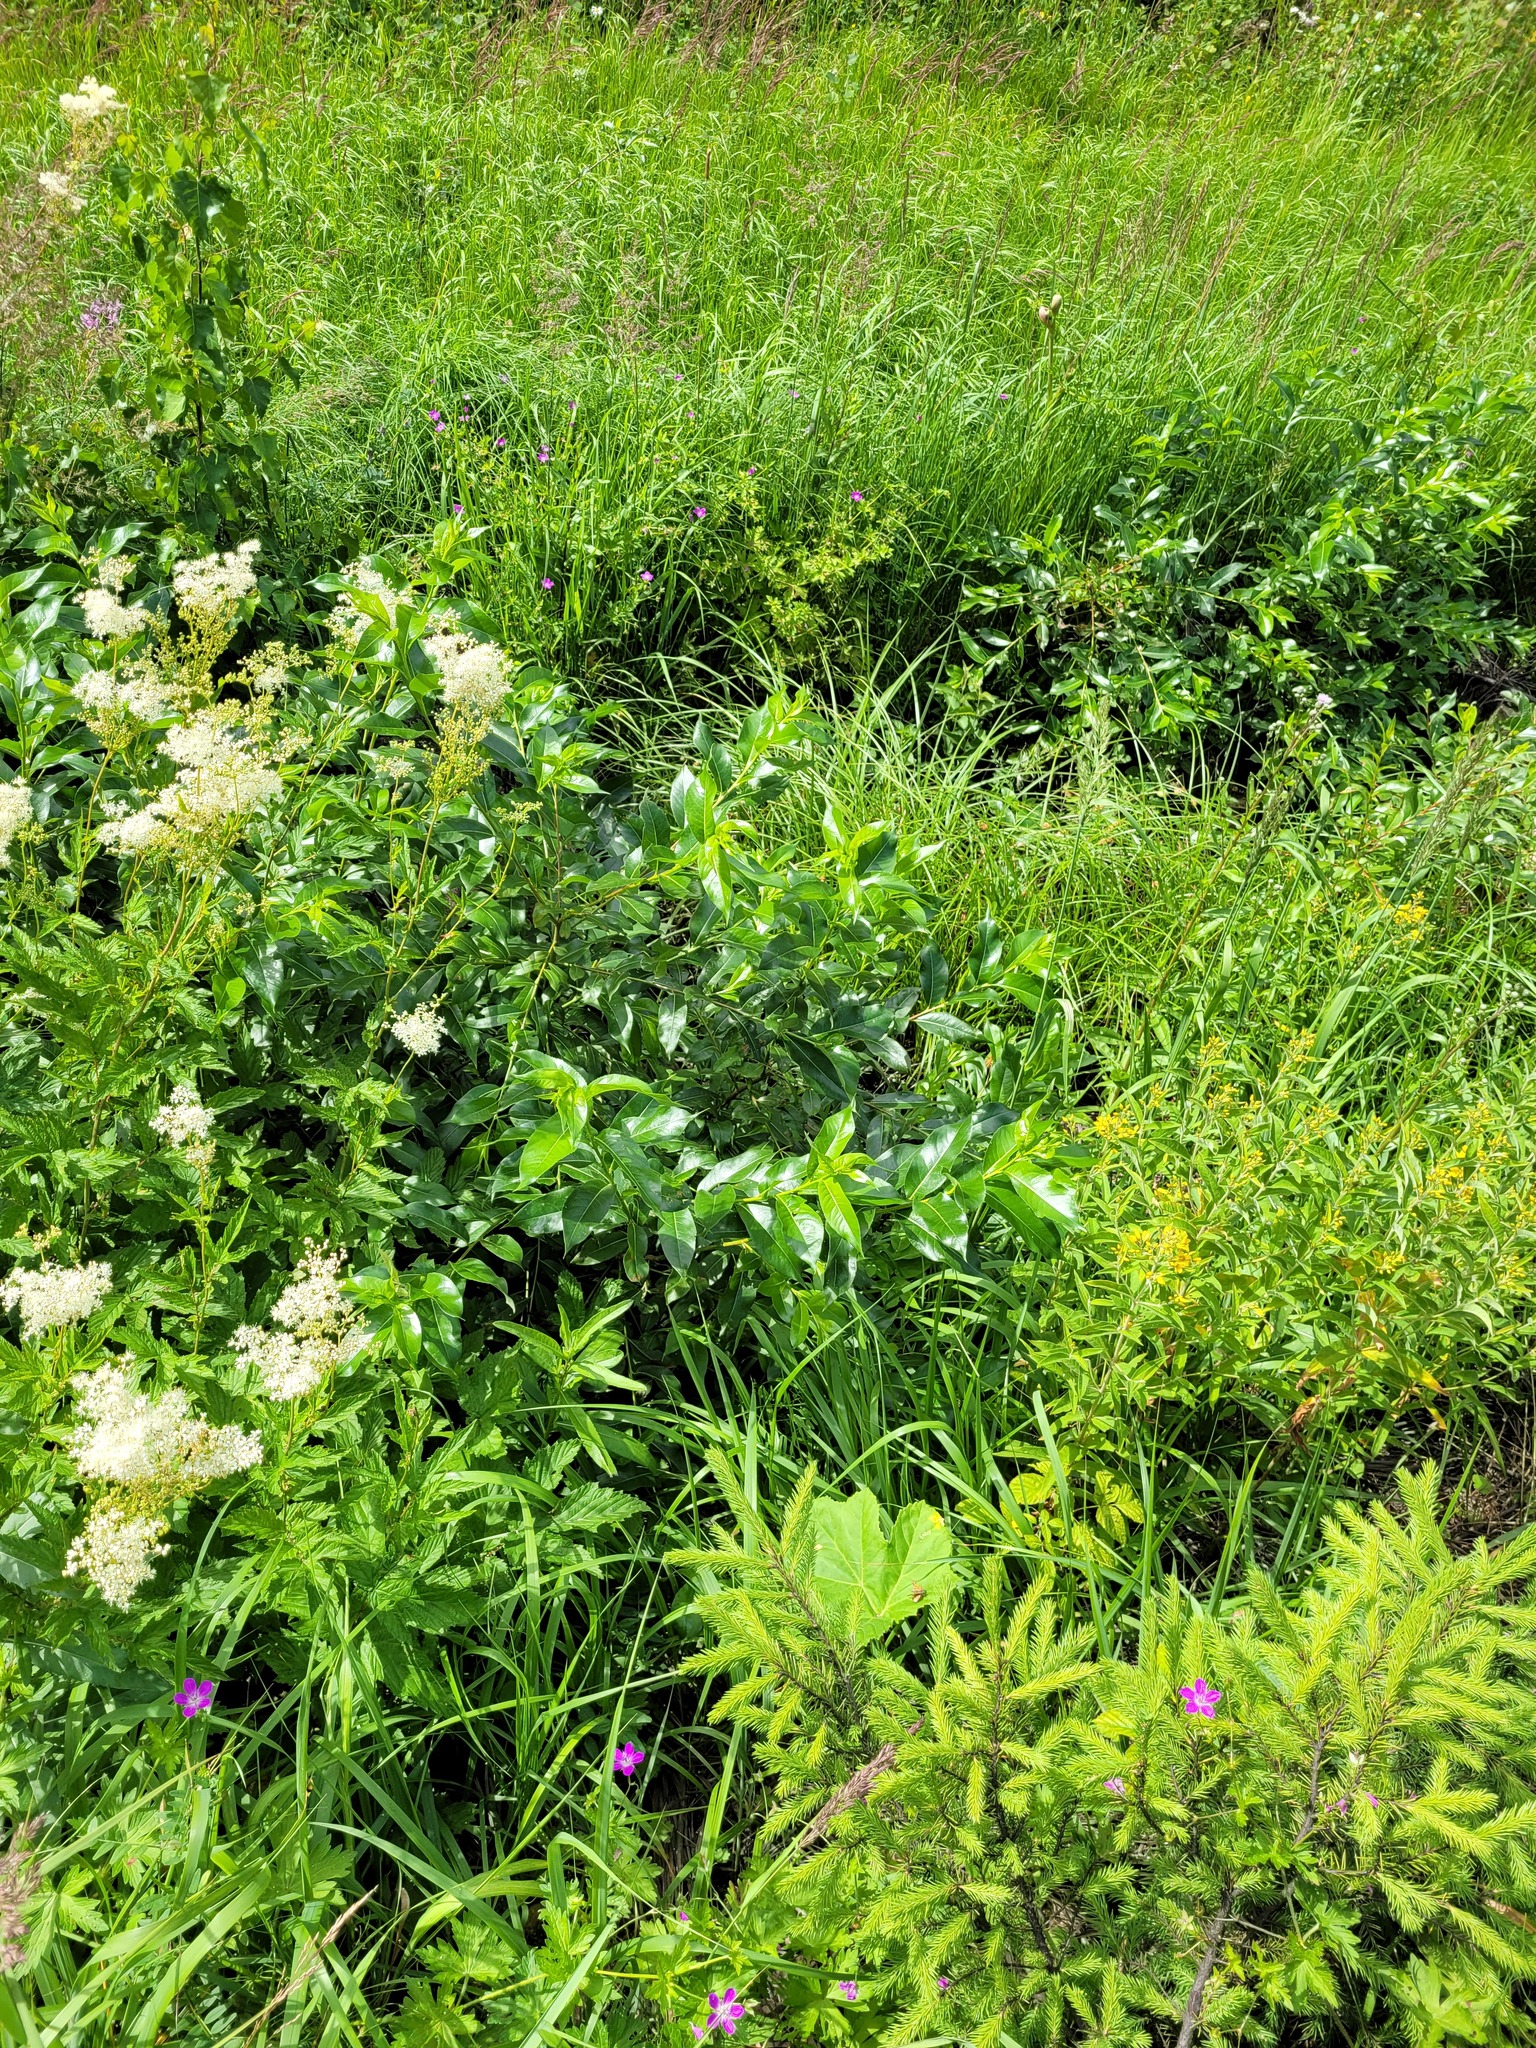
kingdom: Plantae
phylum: Tracheophyta
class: Magnoliopsida
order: Malpighiales
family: Salicaceae
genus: Salix
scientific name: Salix pentandra
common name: Bay willow
